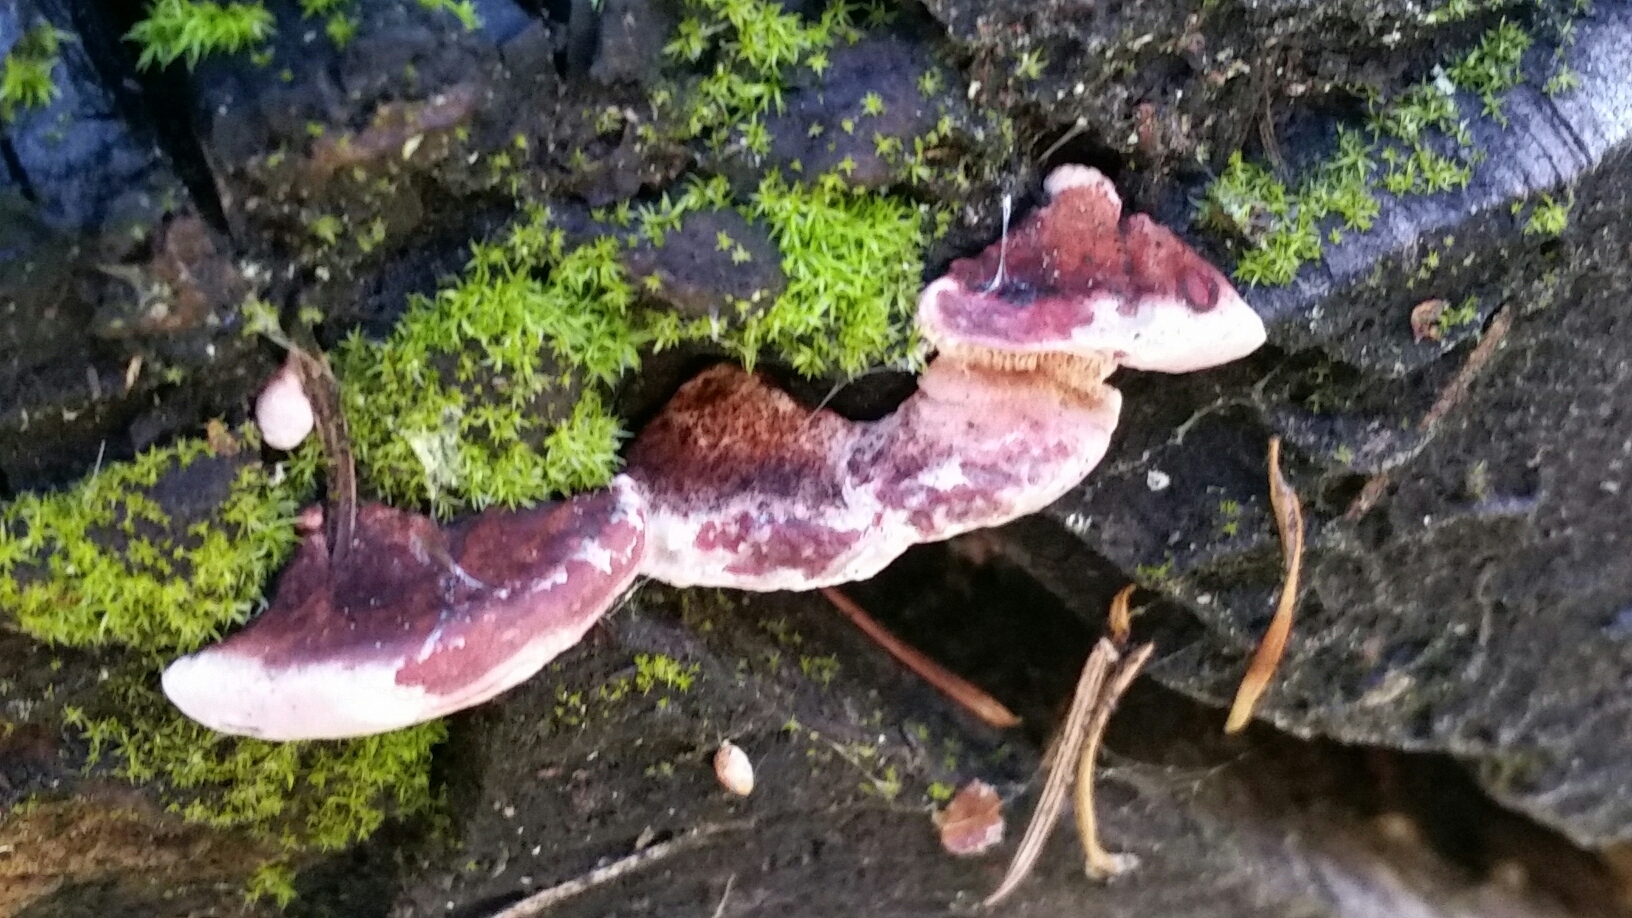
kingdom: Fungi
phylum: Basidiomycota
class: Agaricomycetes
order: Polyporales
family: Fomitopsidaceae
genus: Rhodofomes
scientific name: Rhodofomes cajanderi
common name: Rosy conk
